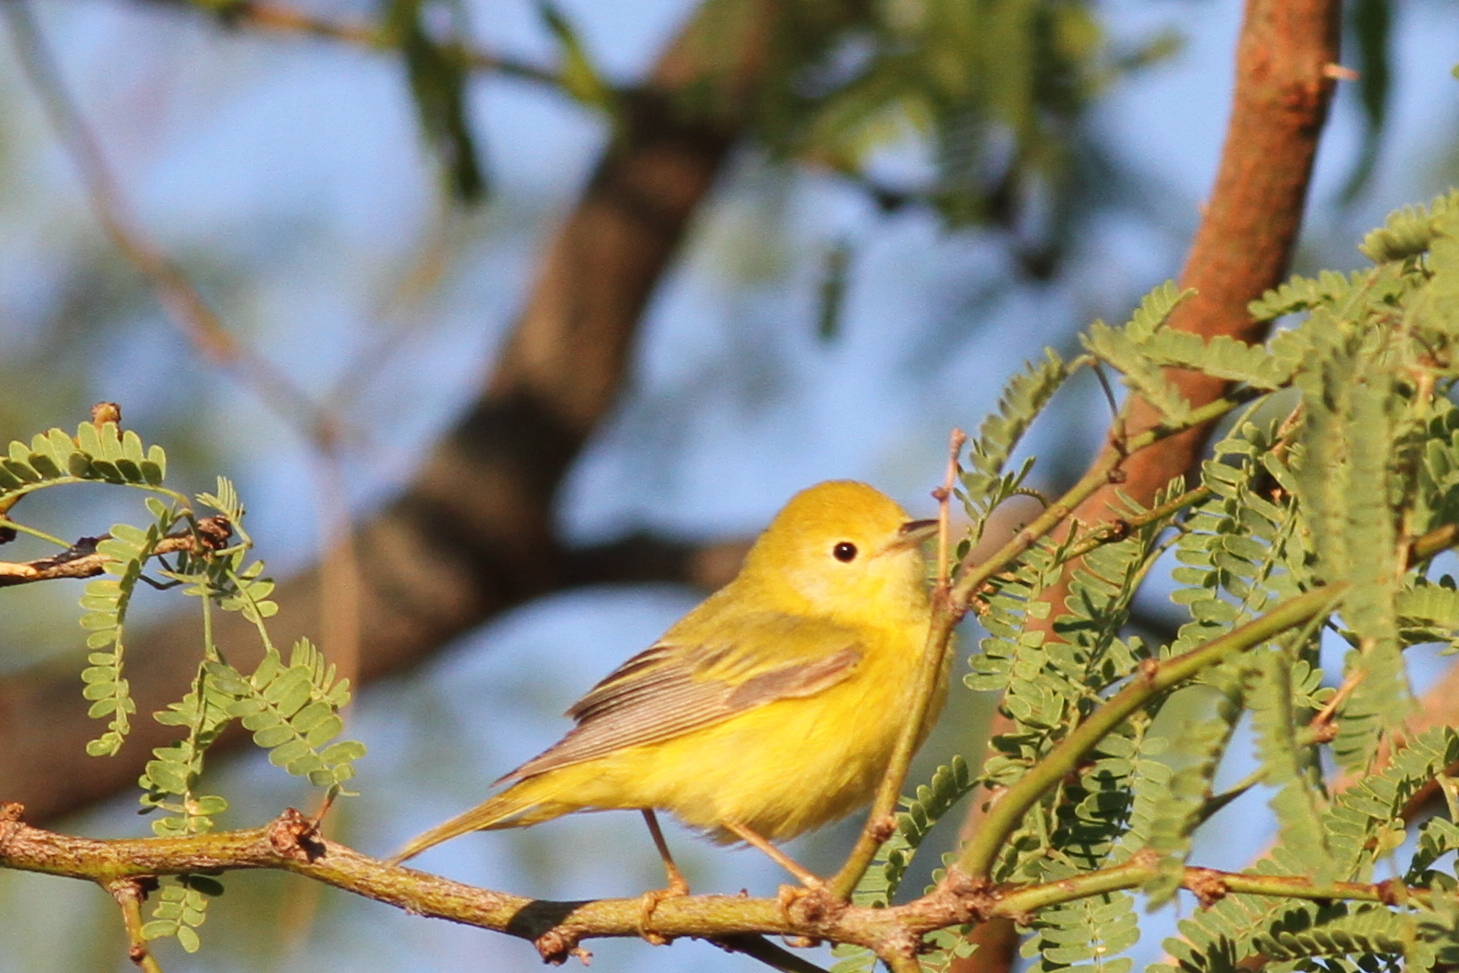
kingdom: Animalia
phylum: Chordata
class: Aves
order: Passeriformes
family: Parulidae
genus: Setophaga
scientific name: Setophaga petechia
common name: Yellow warbler
